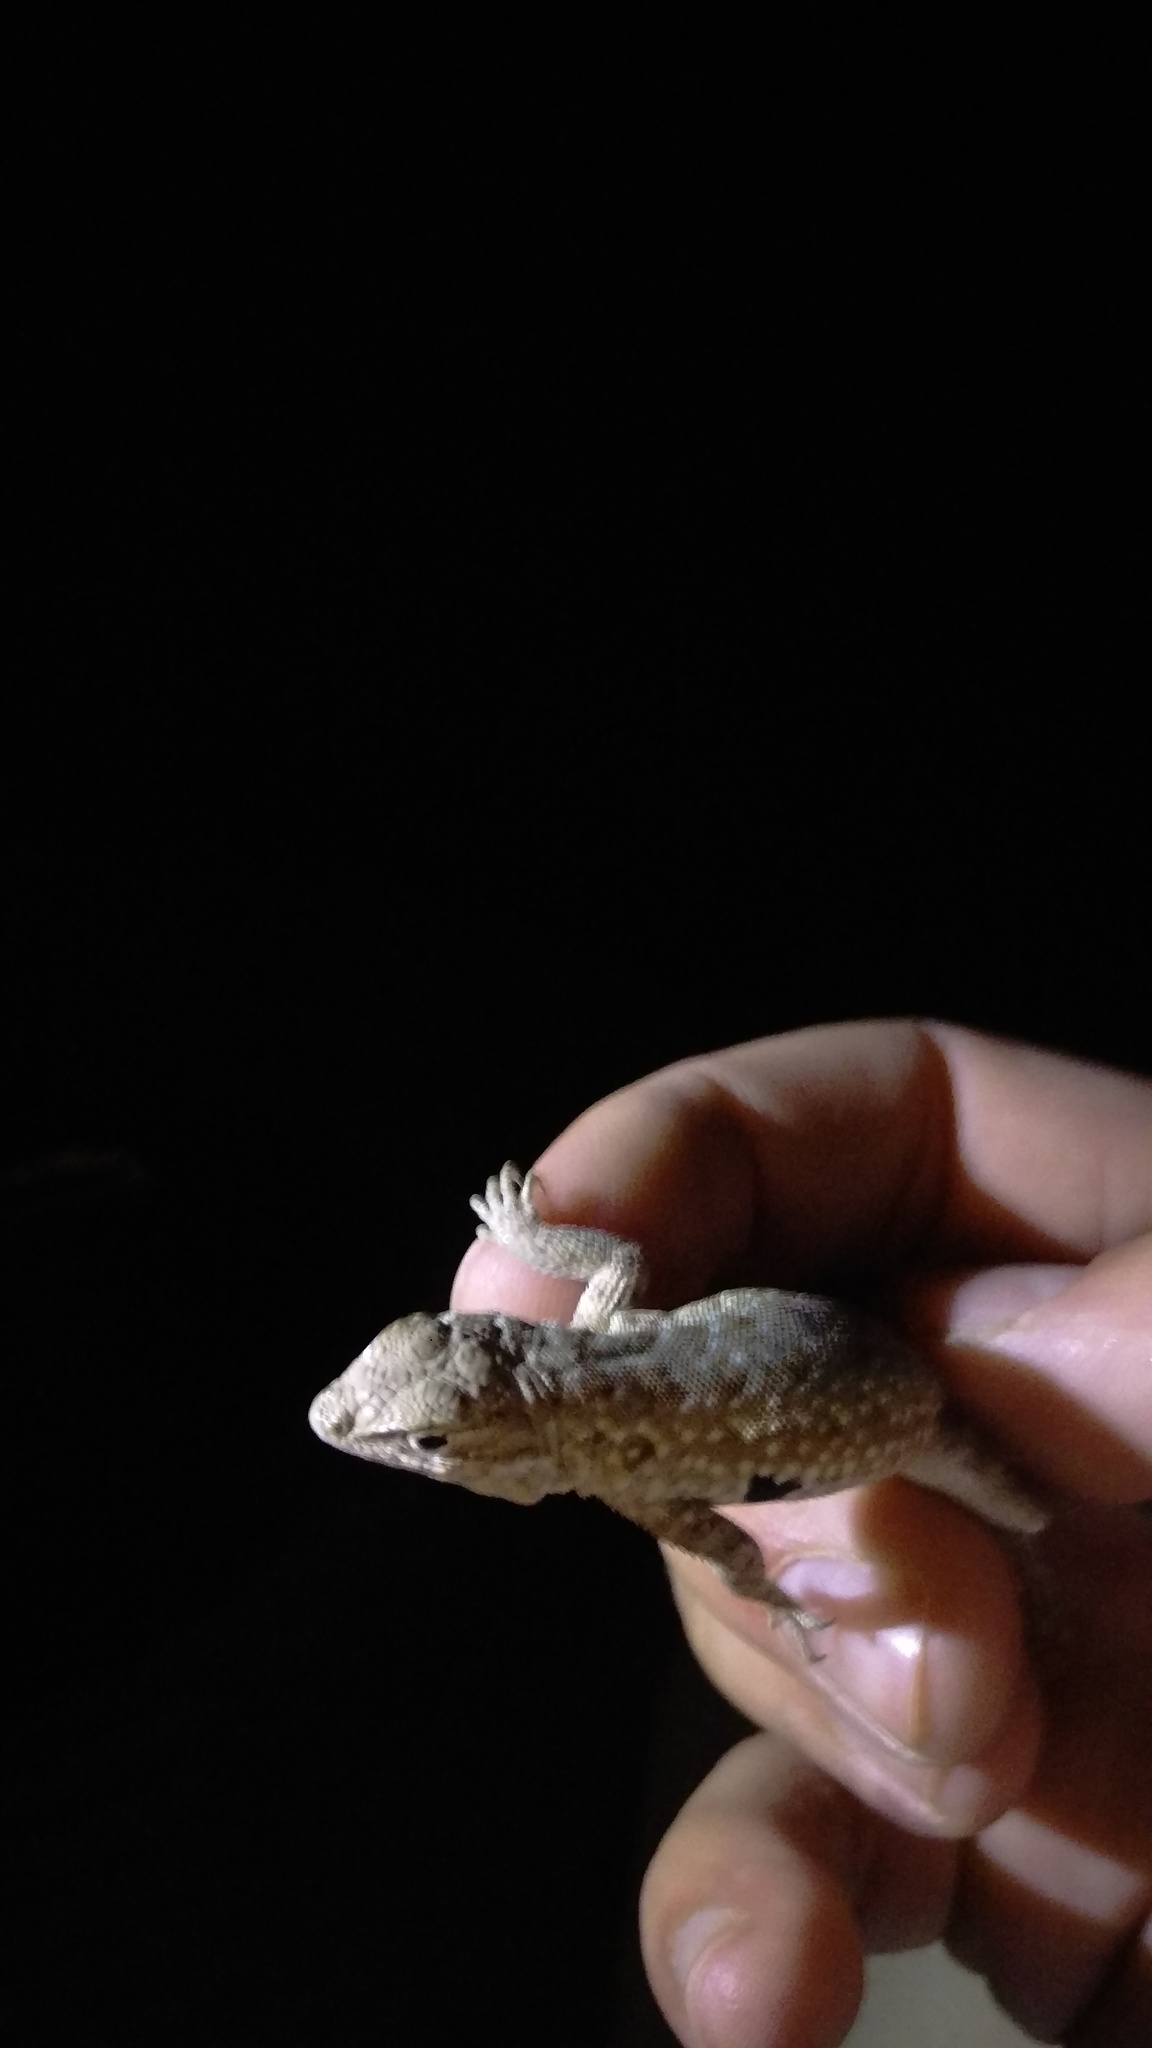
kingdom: Animalia
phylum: Chordata
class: Squamata
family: Phrynosomatidae
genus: Uta
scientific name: Uta stansburiana
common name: Side-blotched lizard
